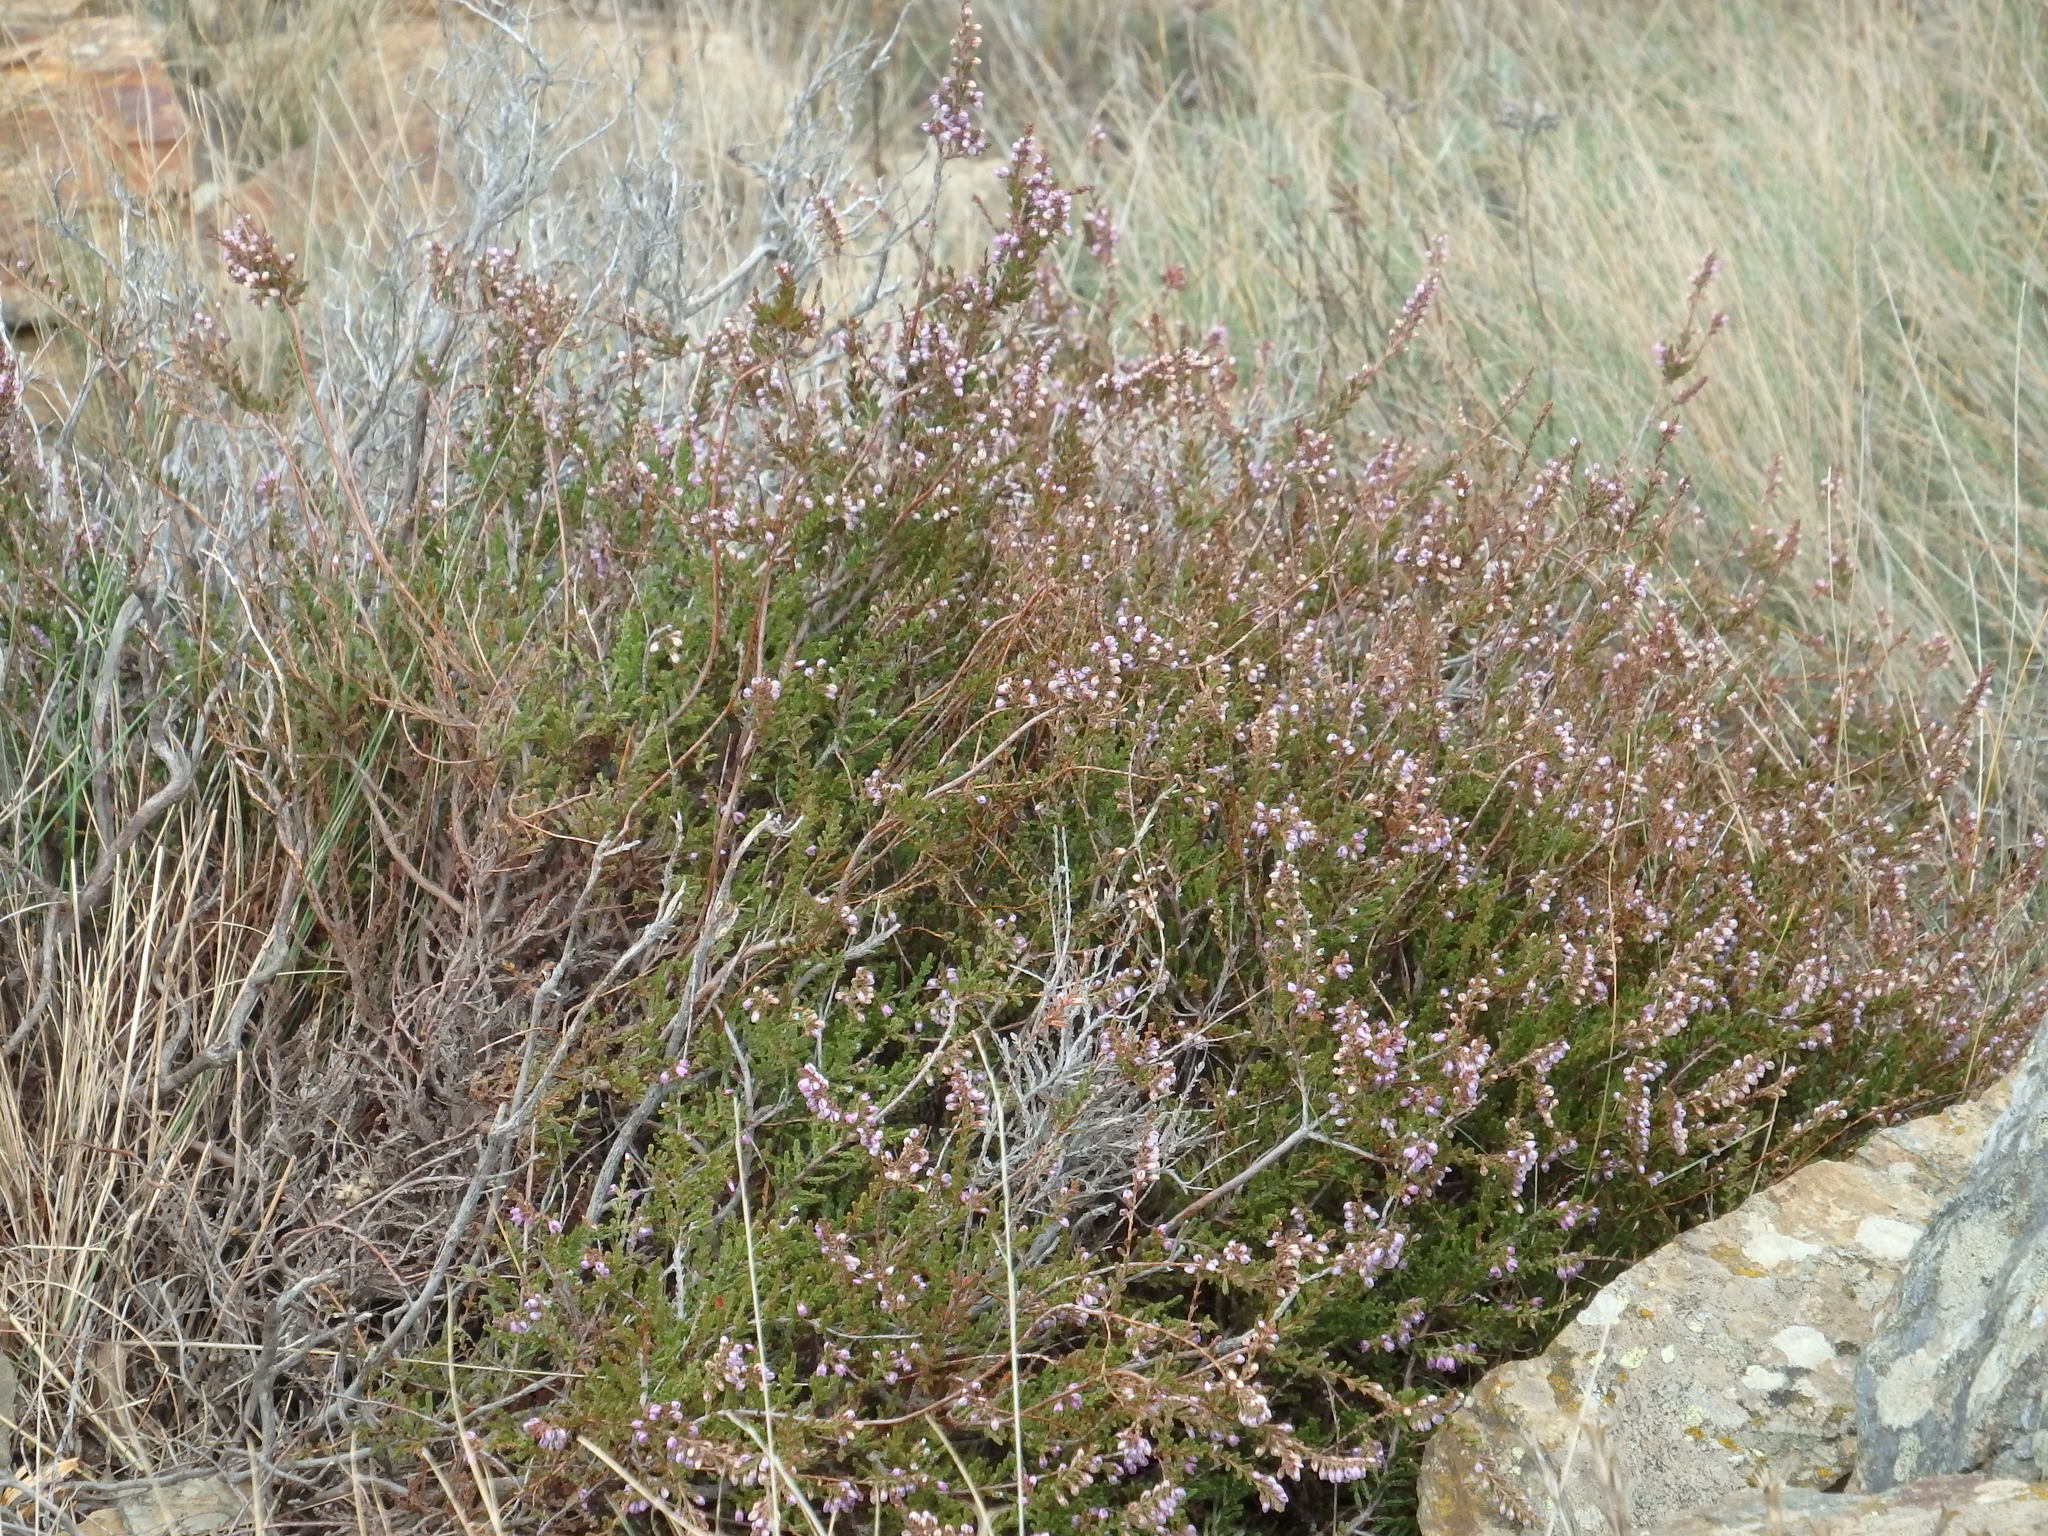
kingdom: Plantae
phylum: Tracheophyta
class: Magnoliopsida
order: Ericales
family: Ericaceae
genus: Calluna
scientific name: Calluna vulgaris
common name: Heather
